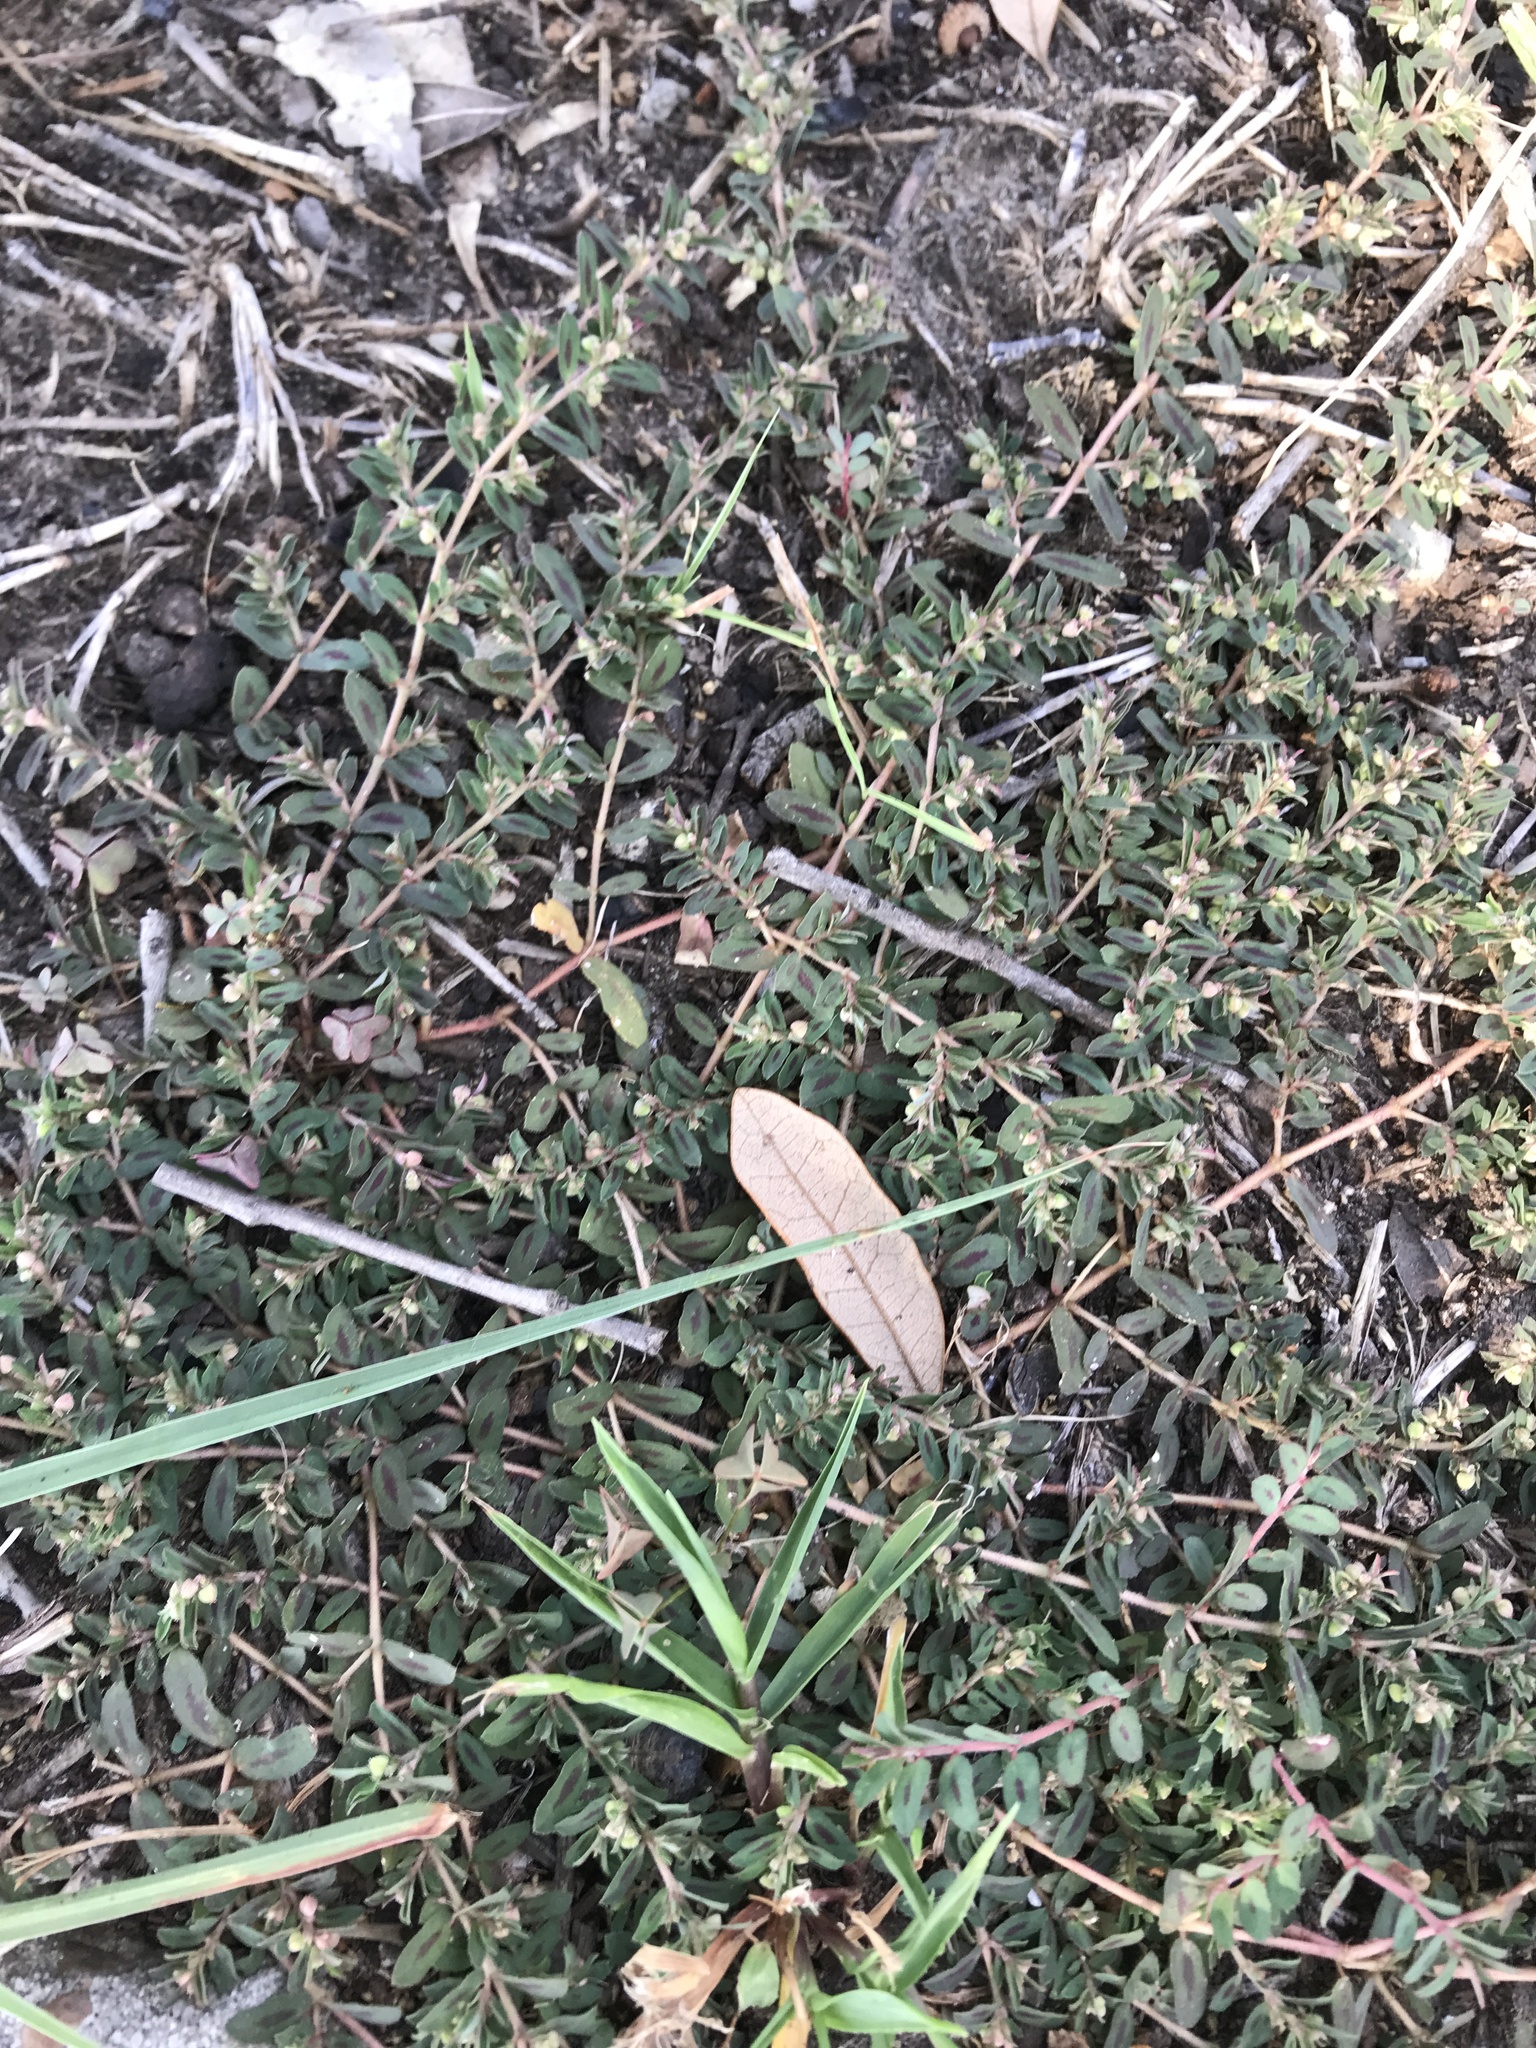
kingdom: Plantae
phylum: Tracheophyta
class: Magnoliopsida
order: Malpighiales
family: Euphorbiaceae
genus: Euphorbia
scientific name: Euphorbia maculata
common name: Spotted spurge
